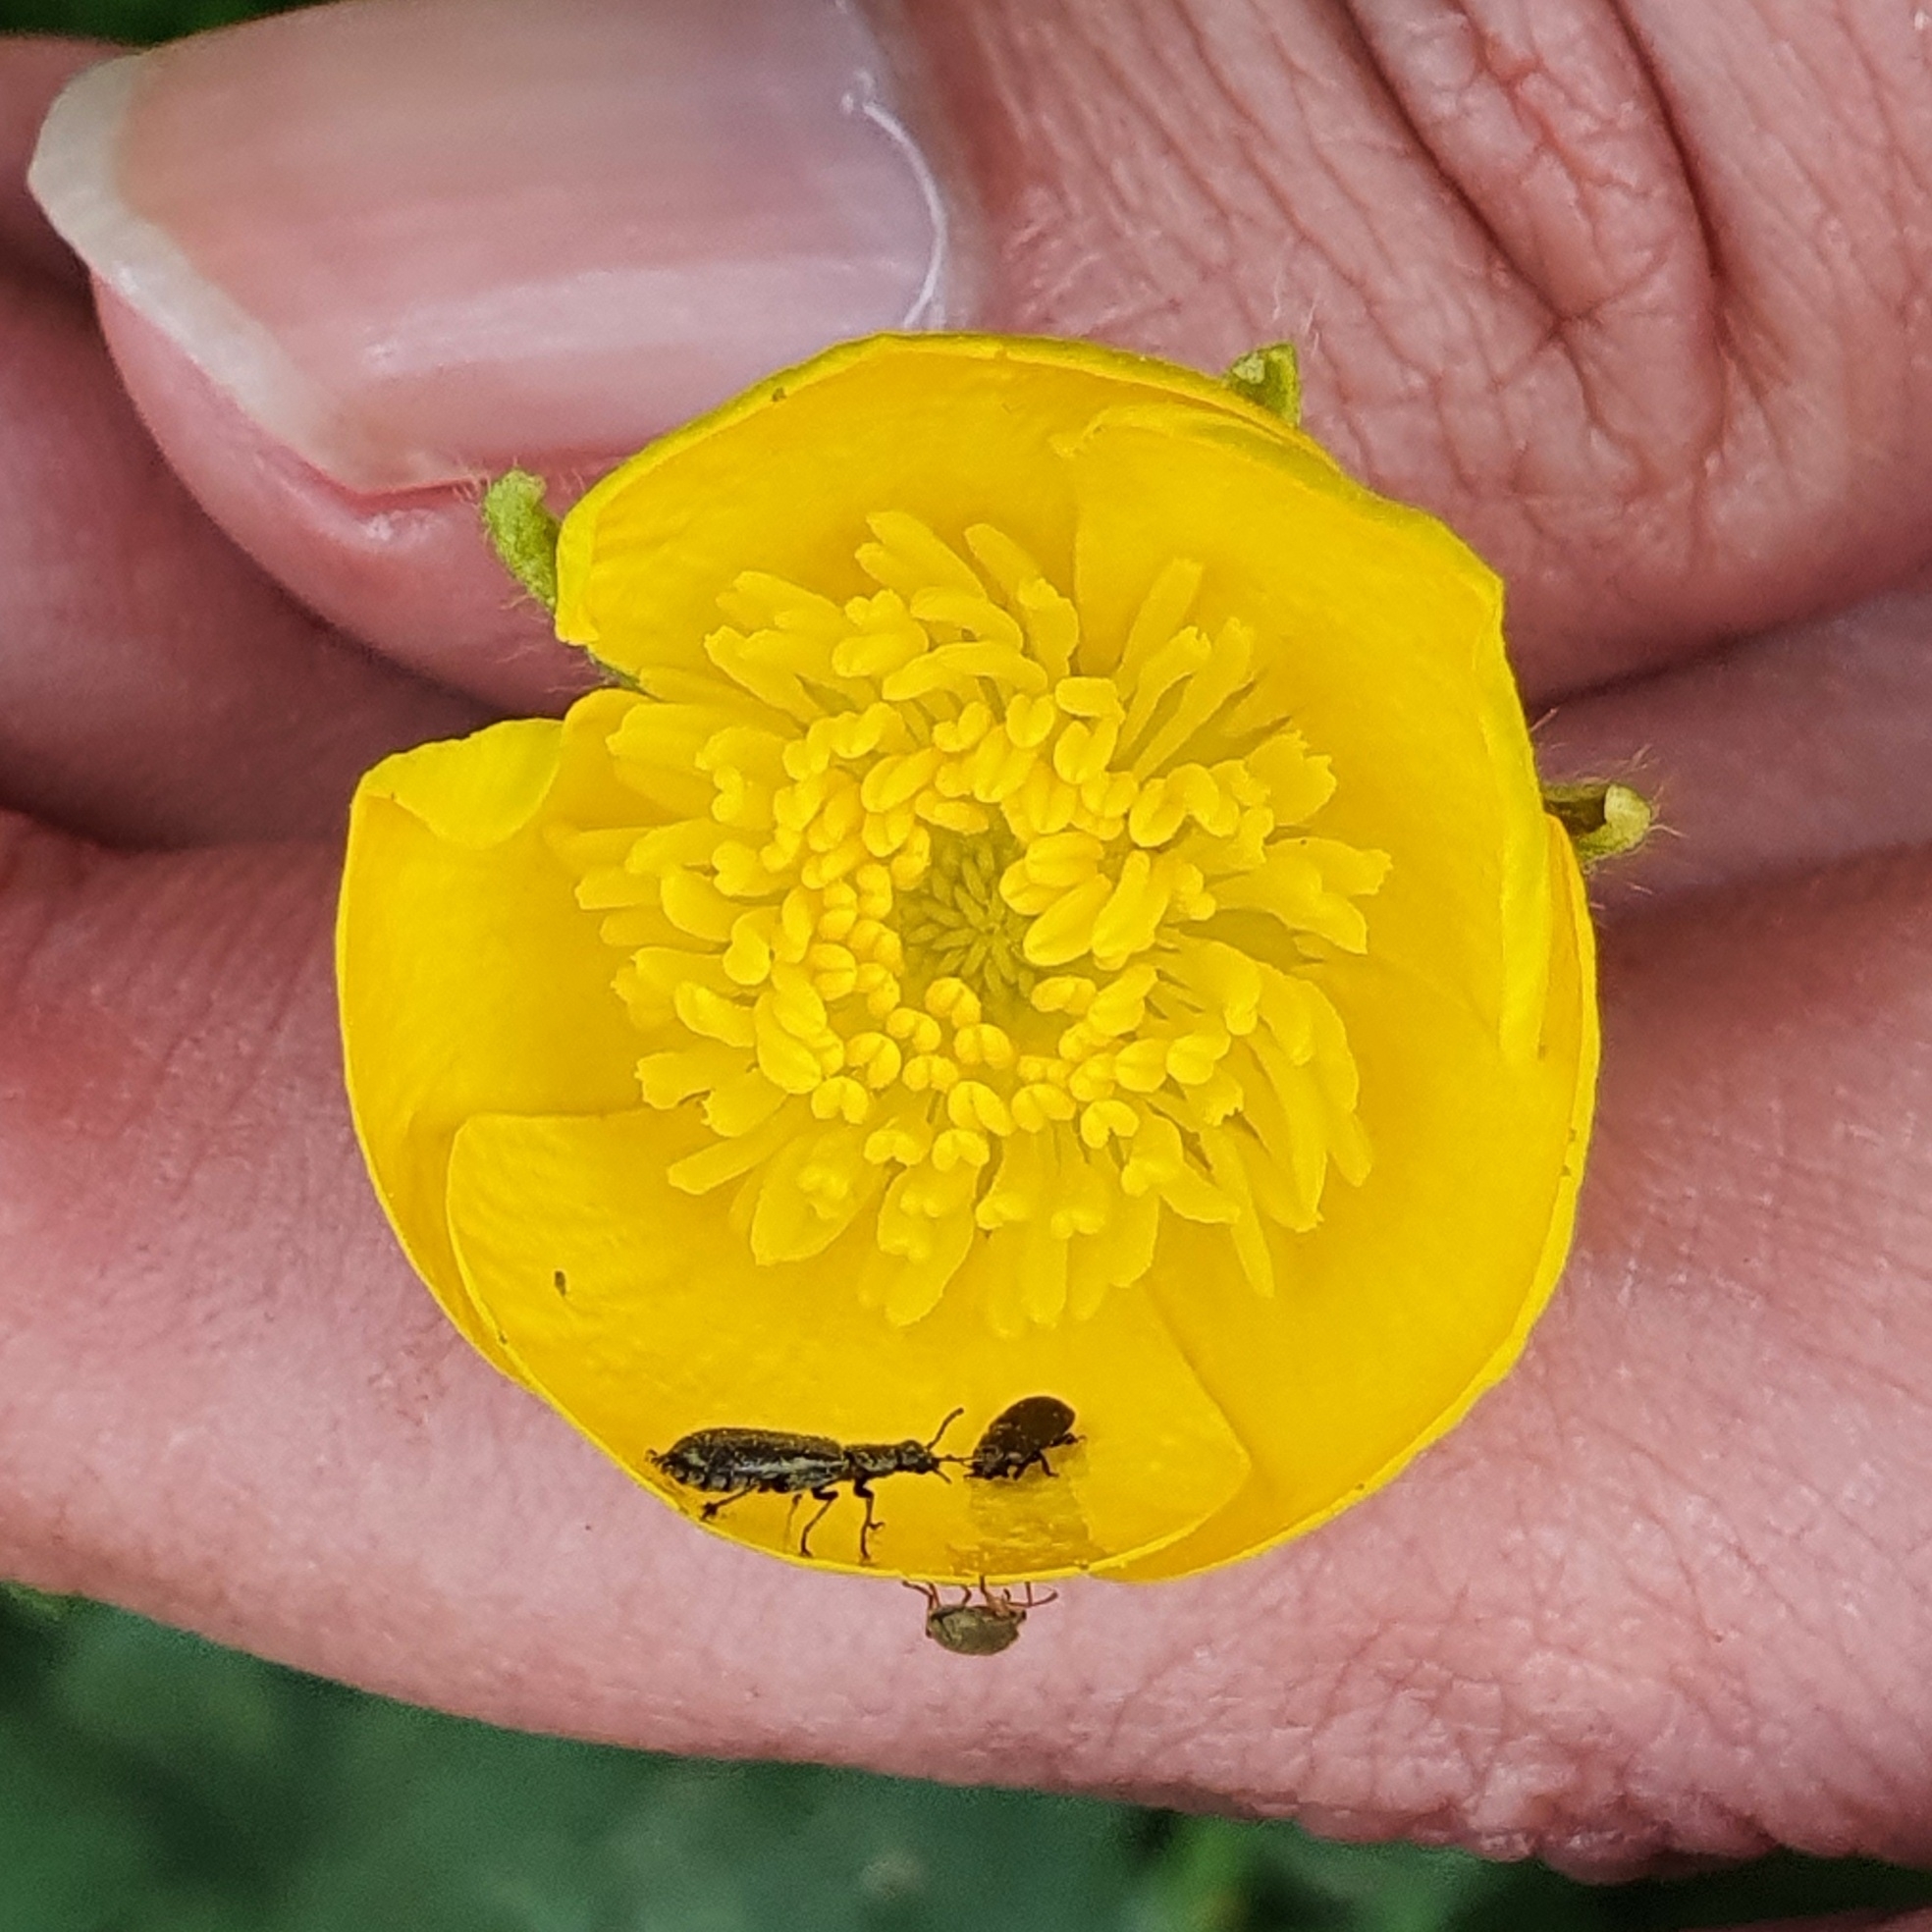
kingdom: Plantae
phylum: Tracheophyta
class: Magnoliopsida
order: Ranunculales
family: Ranunculaceae
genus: Ranunculus
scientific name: Ranunculus macrophyllus
